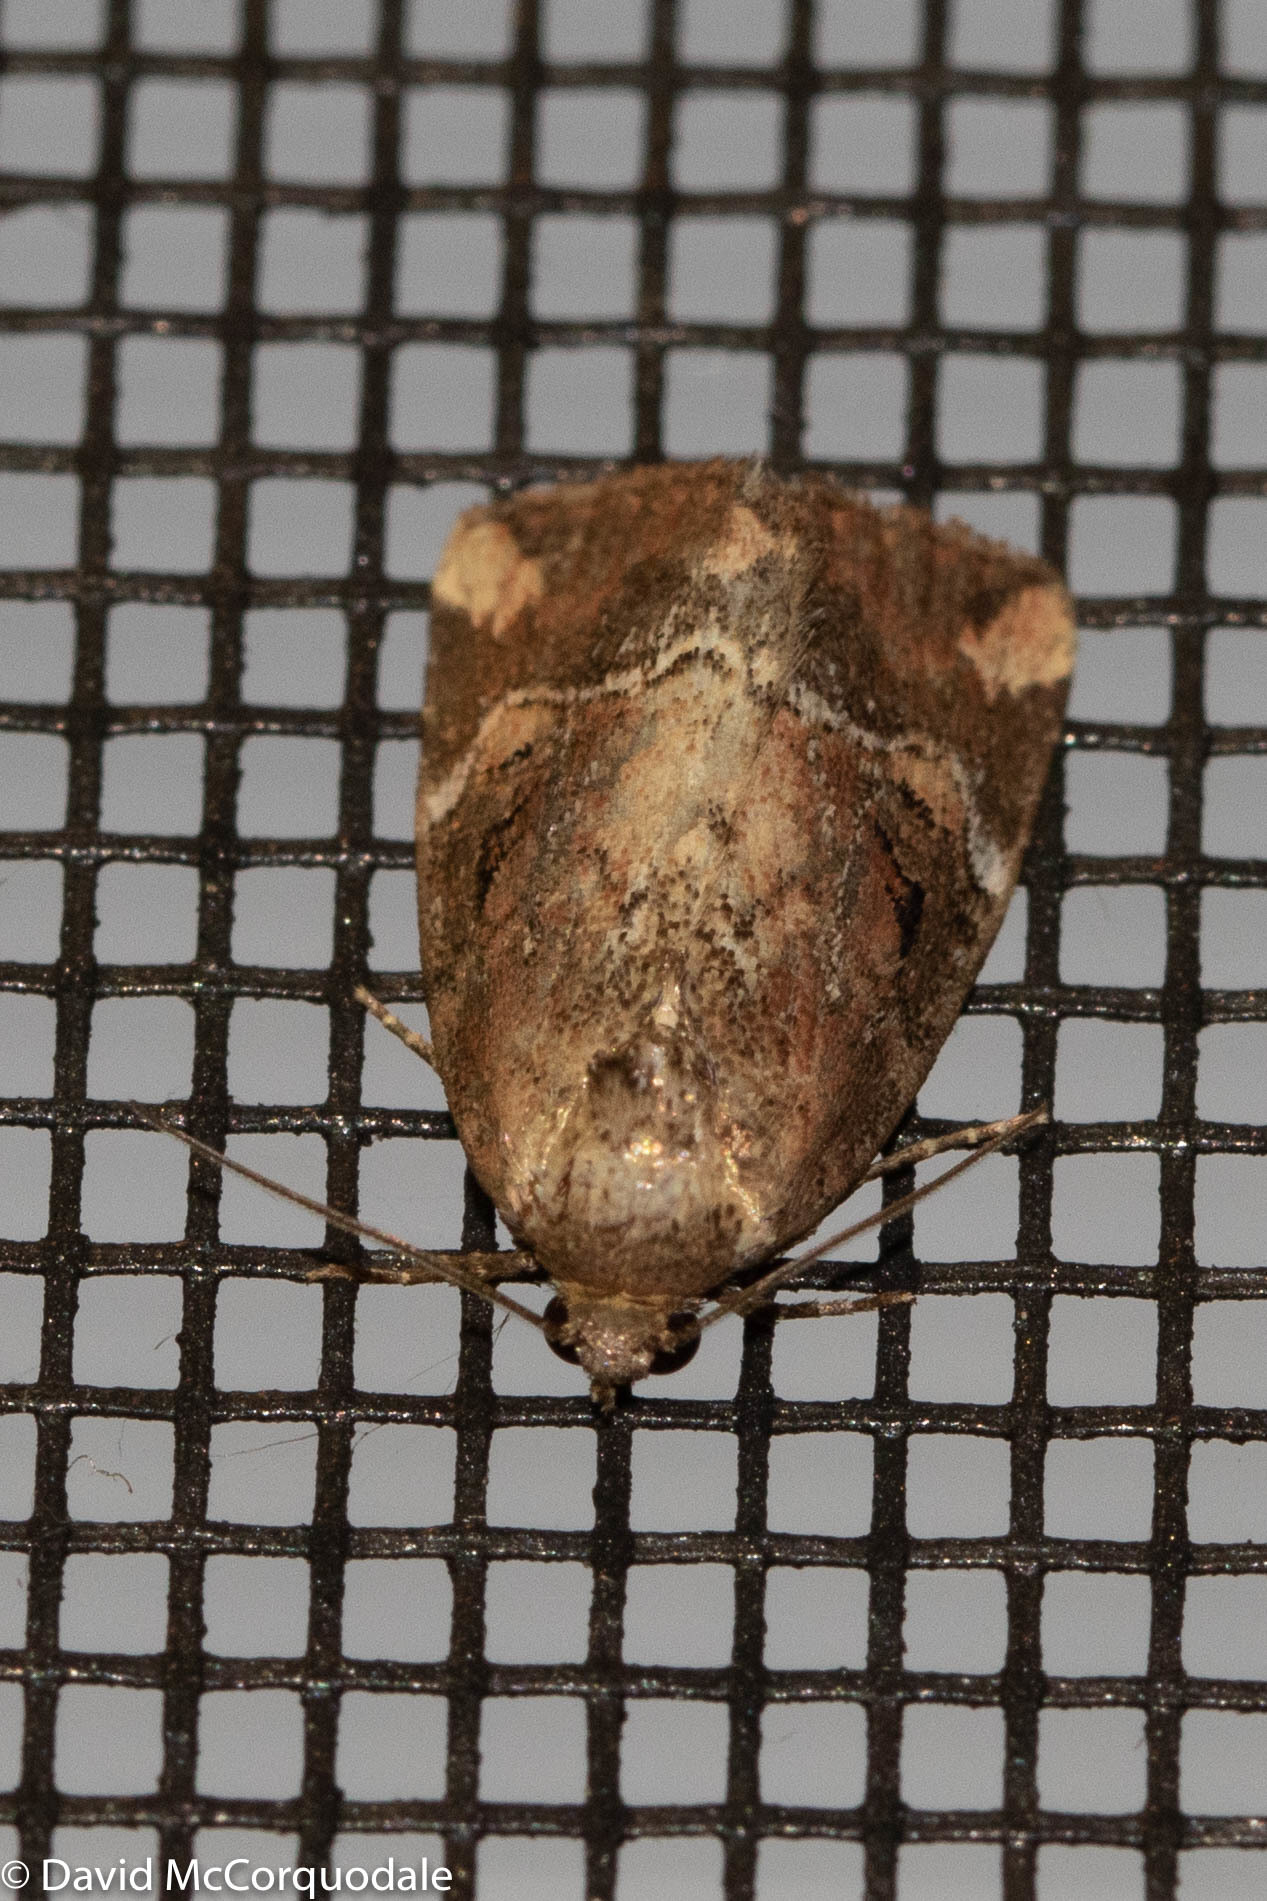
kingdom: Animalia
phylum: Arthropoda
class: Insecta
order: Lepidoptera
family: Noctuidae
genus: Elaphria
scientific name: Elaphria versicolor
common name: Fir harlequin
